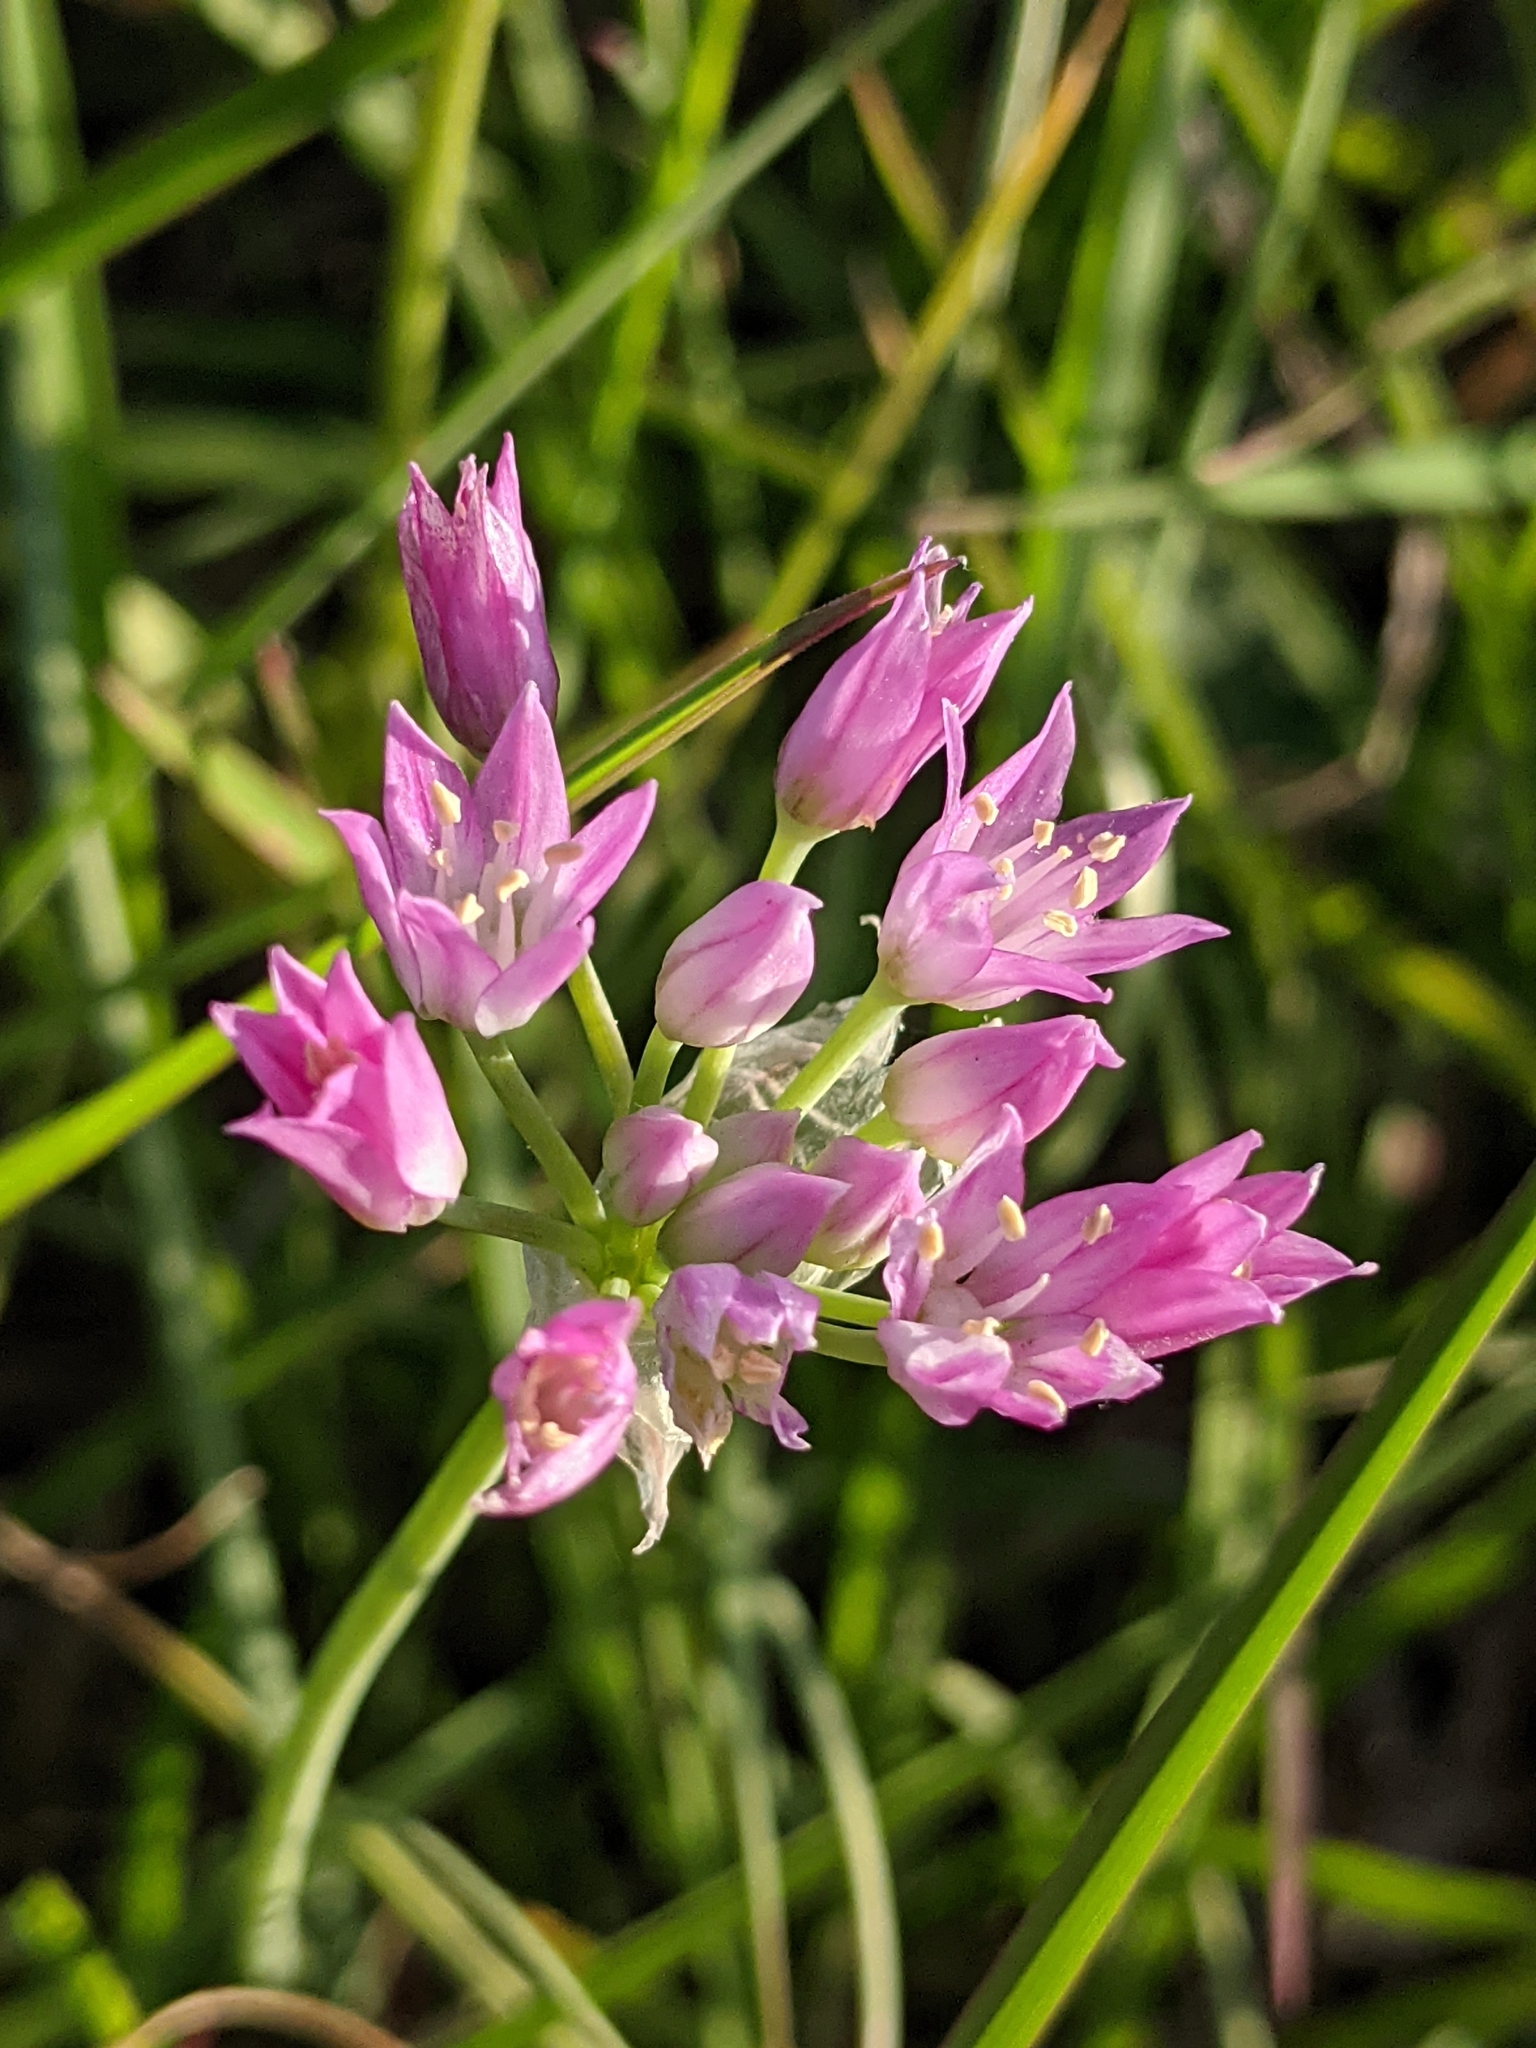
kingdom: Plantae
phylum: Tracheophyta
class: Liliopsida
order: Asparagales
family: Amaryllidaceae
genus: Allium
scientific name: Allium drummondii
